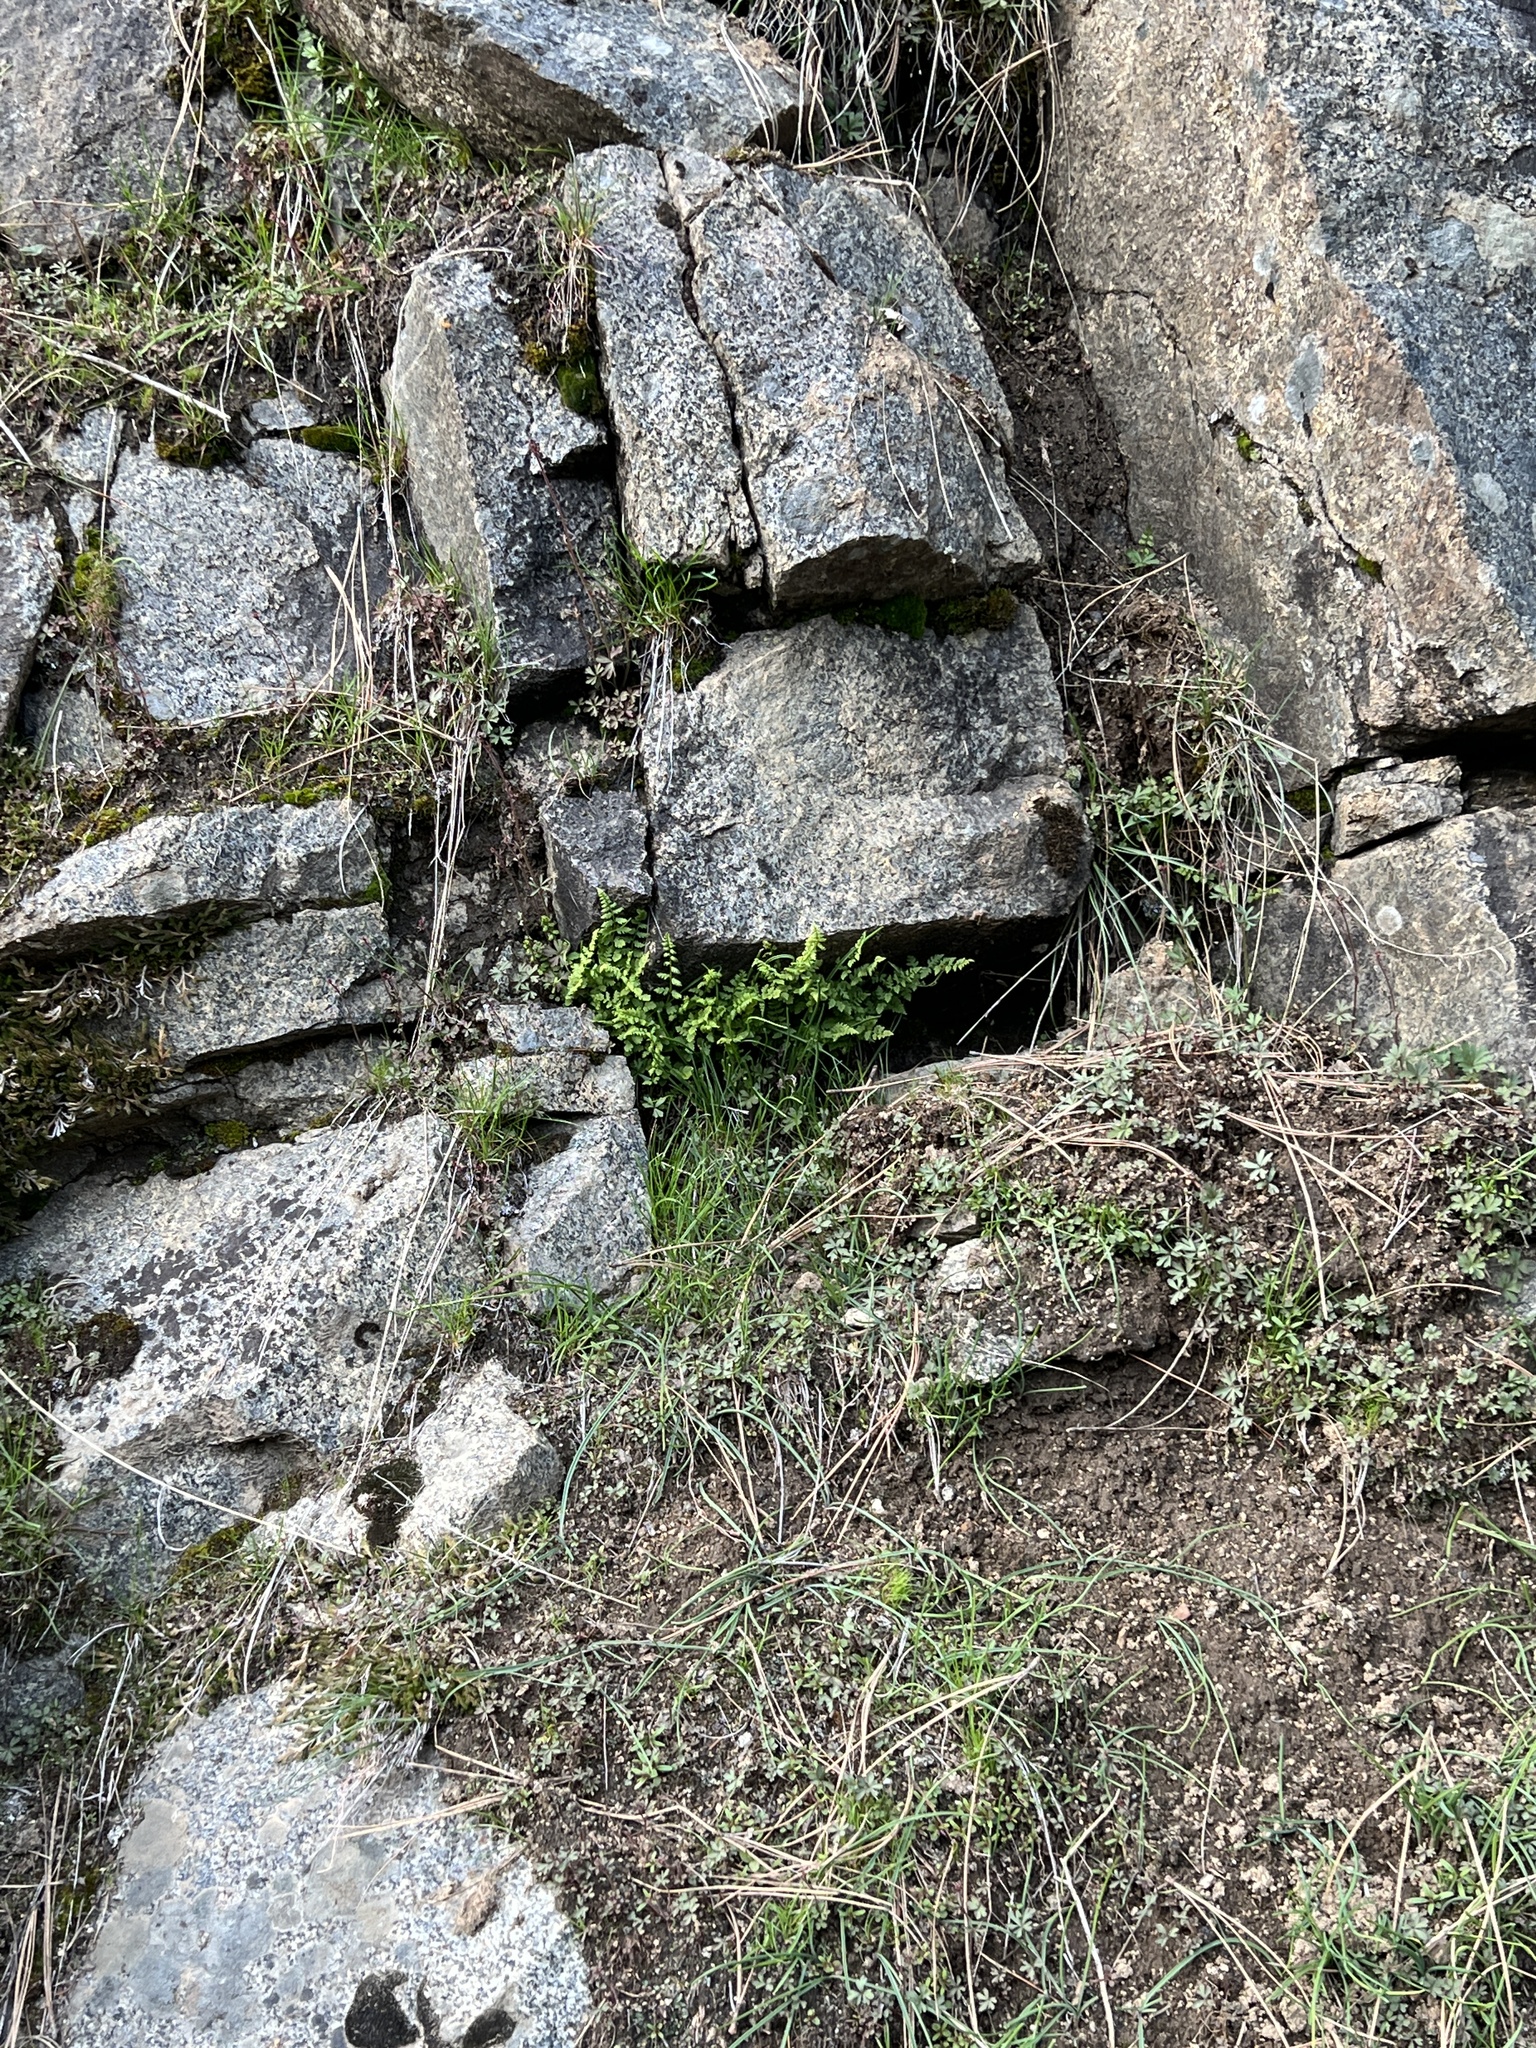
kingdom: Plantae
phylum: Tracheophyta
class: Polypodiopsida
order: Polypodiales
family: Cystopteridaceae
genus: Cystopteris
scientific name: Cystopteris fragilis
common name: Brittle bladder fern
